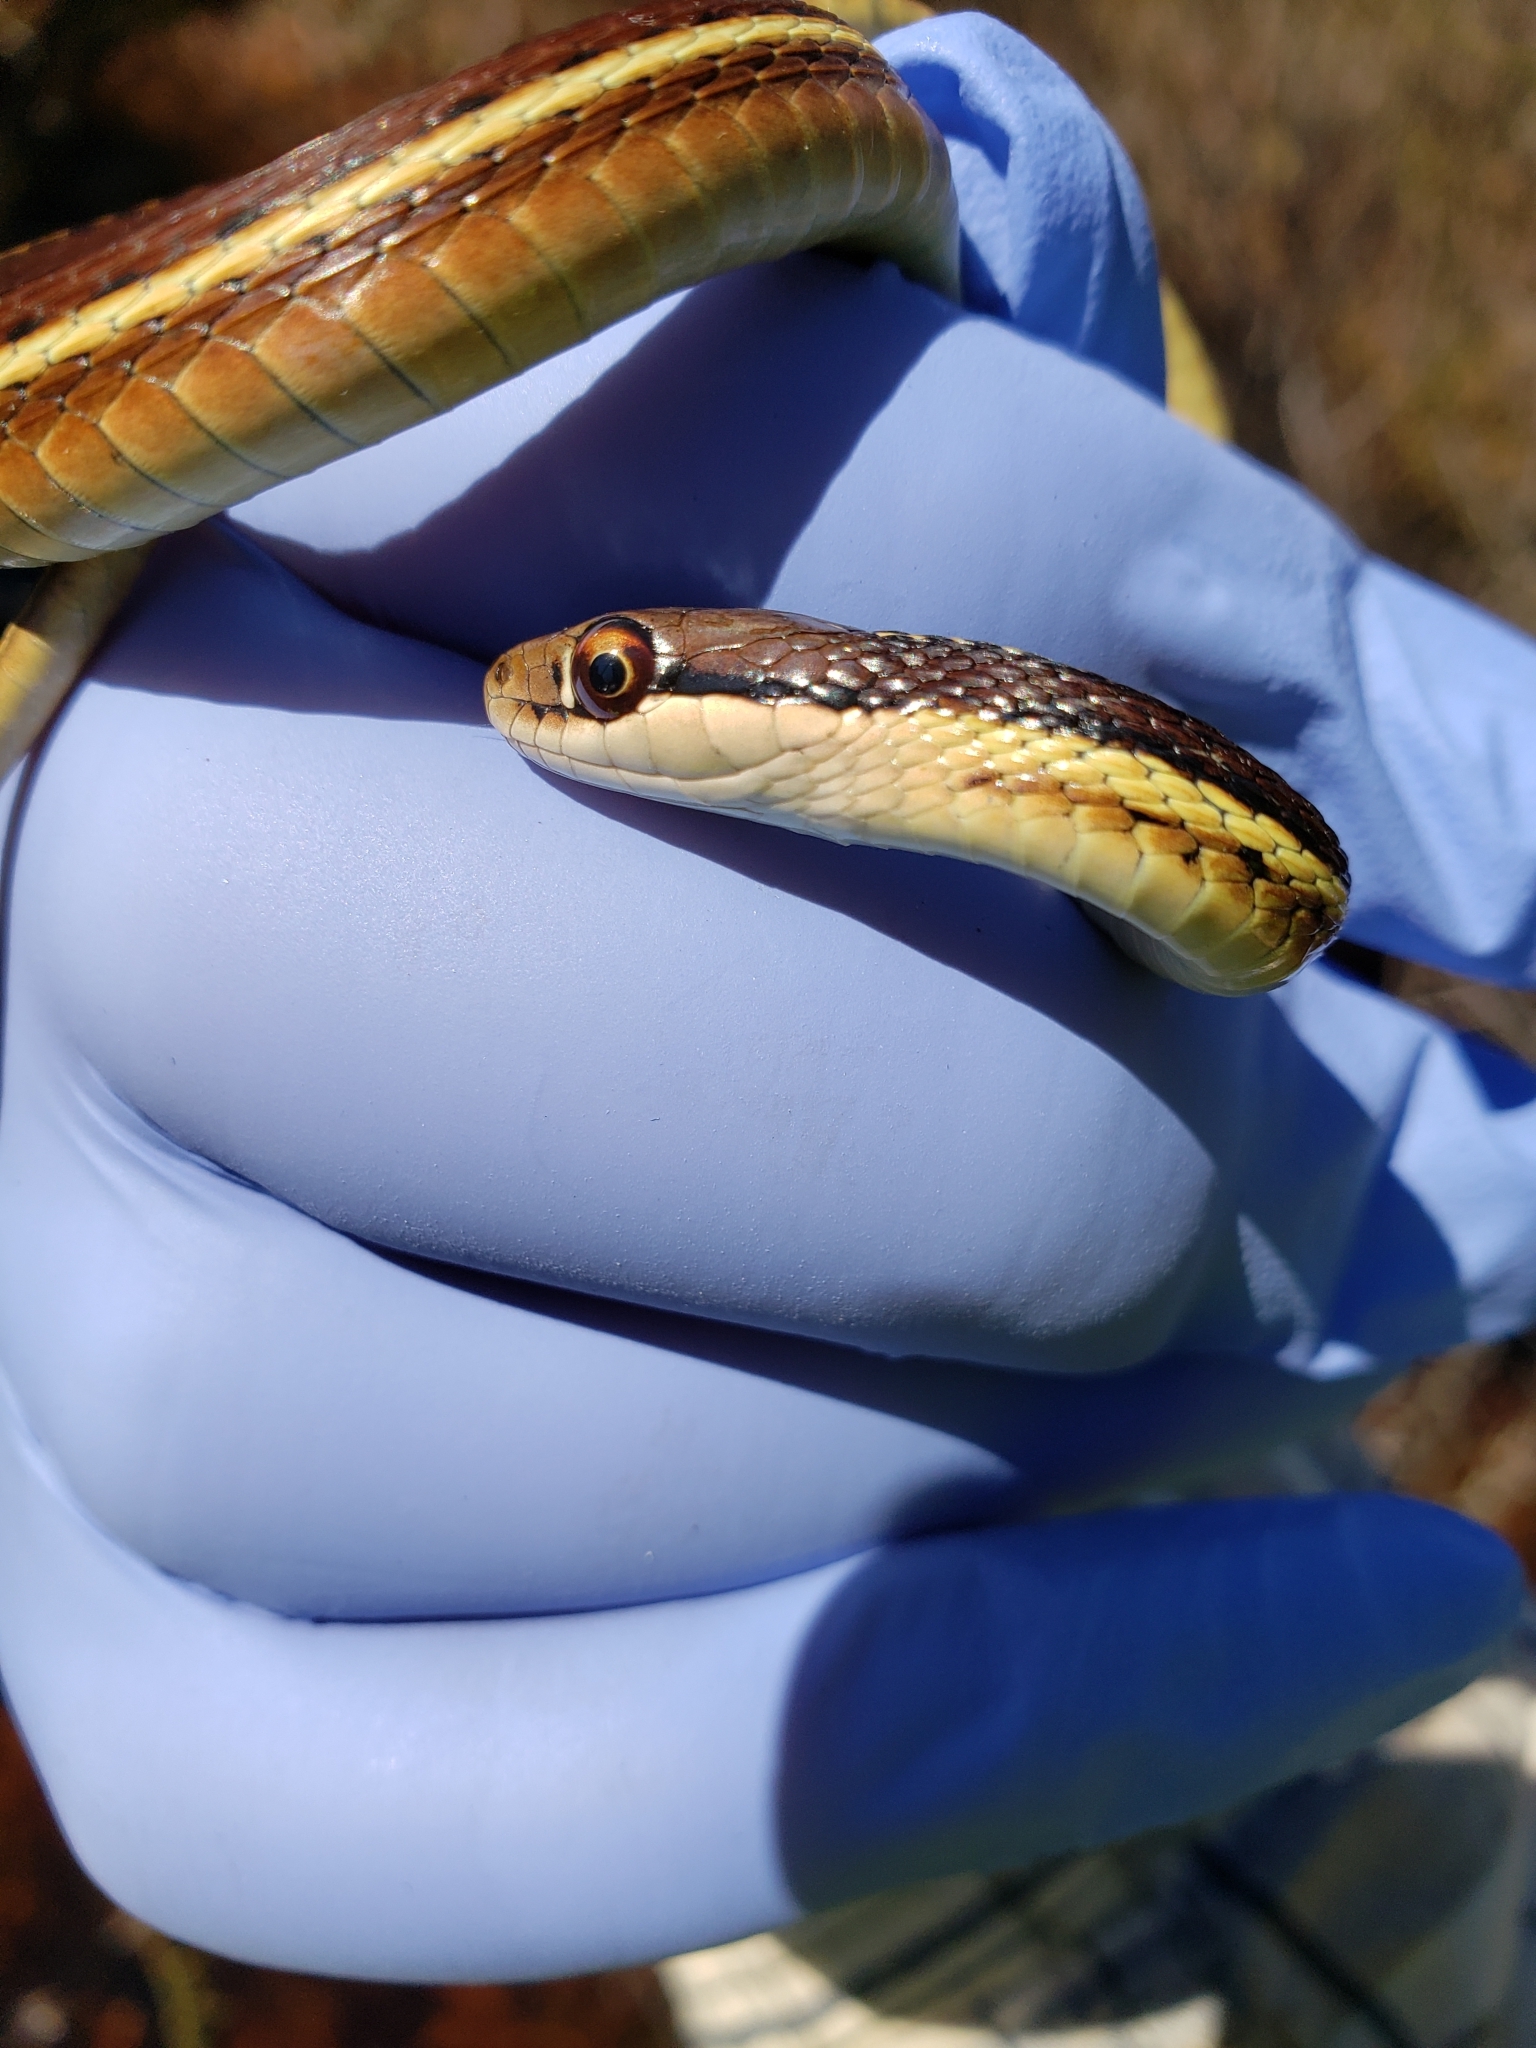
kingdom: Animalia
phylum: Chordata
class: Squamata
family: Colubridae
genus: Thamnophis
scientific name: Thamnophis saurita
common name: Eastern ribbonsnake
